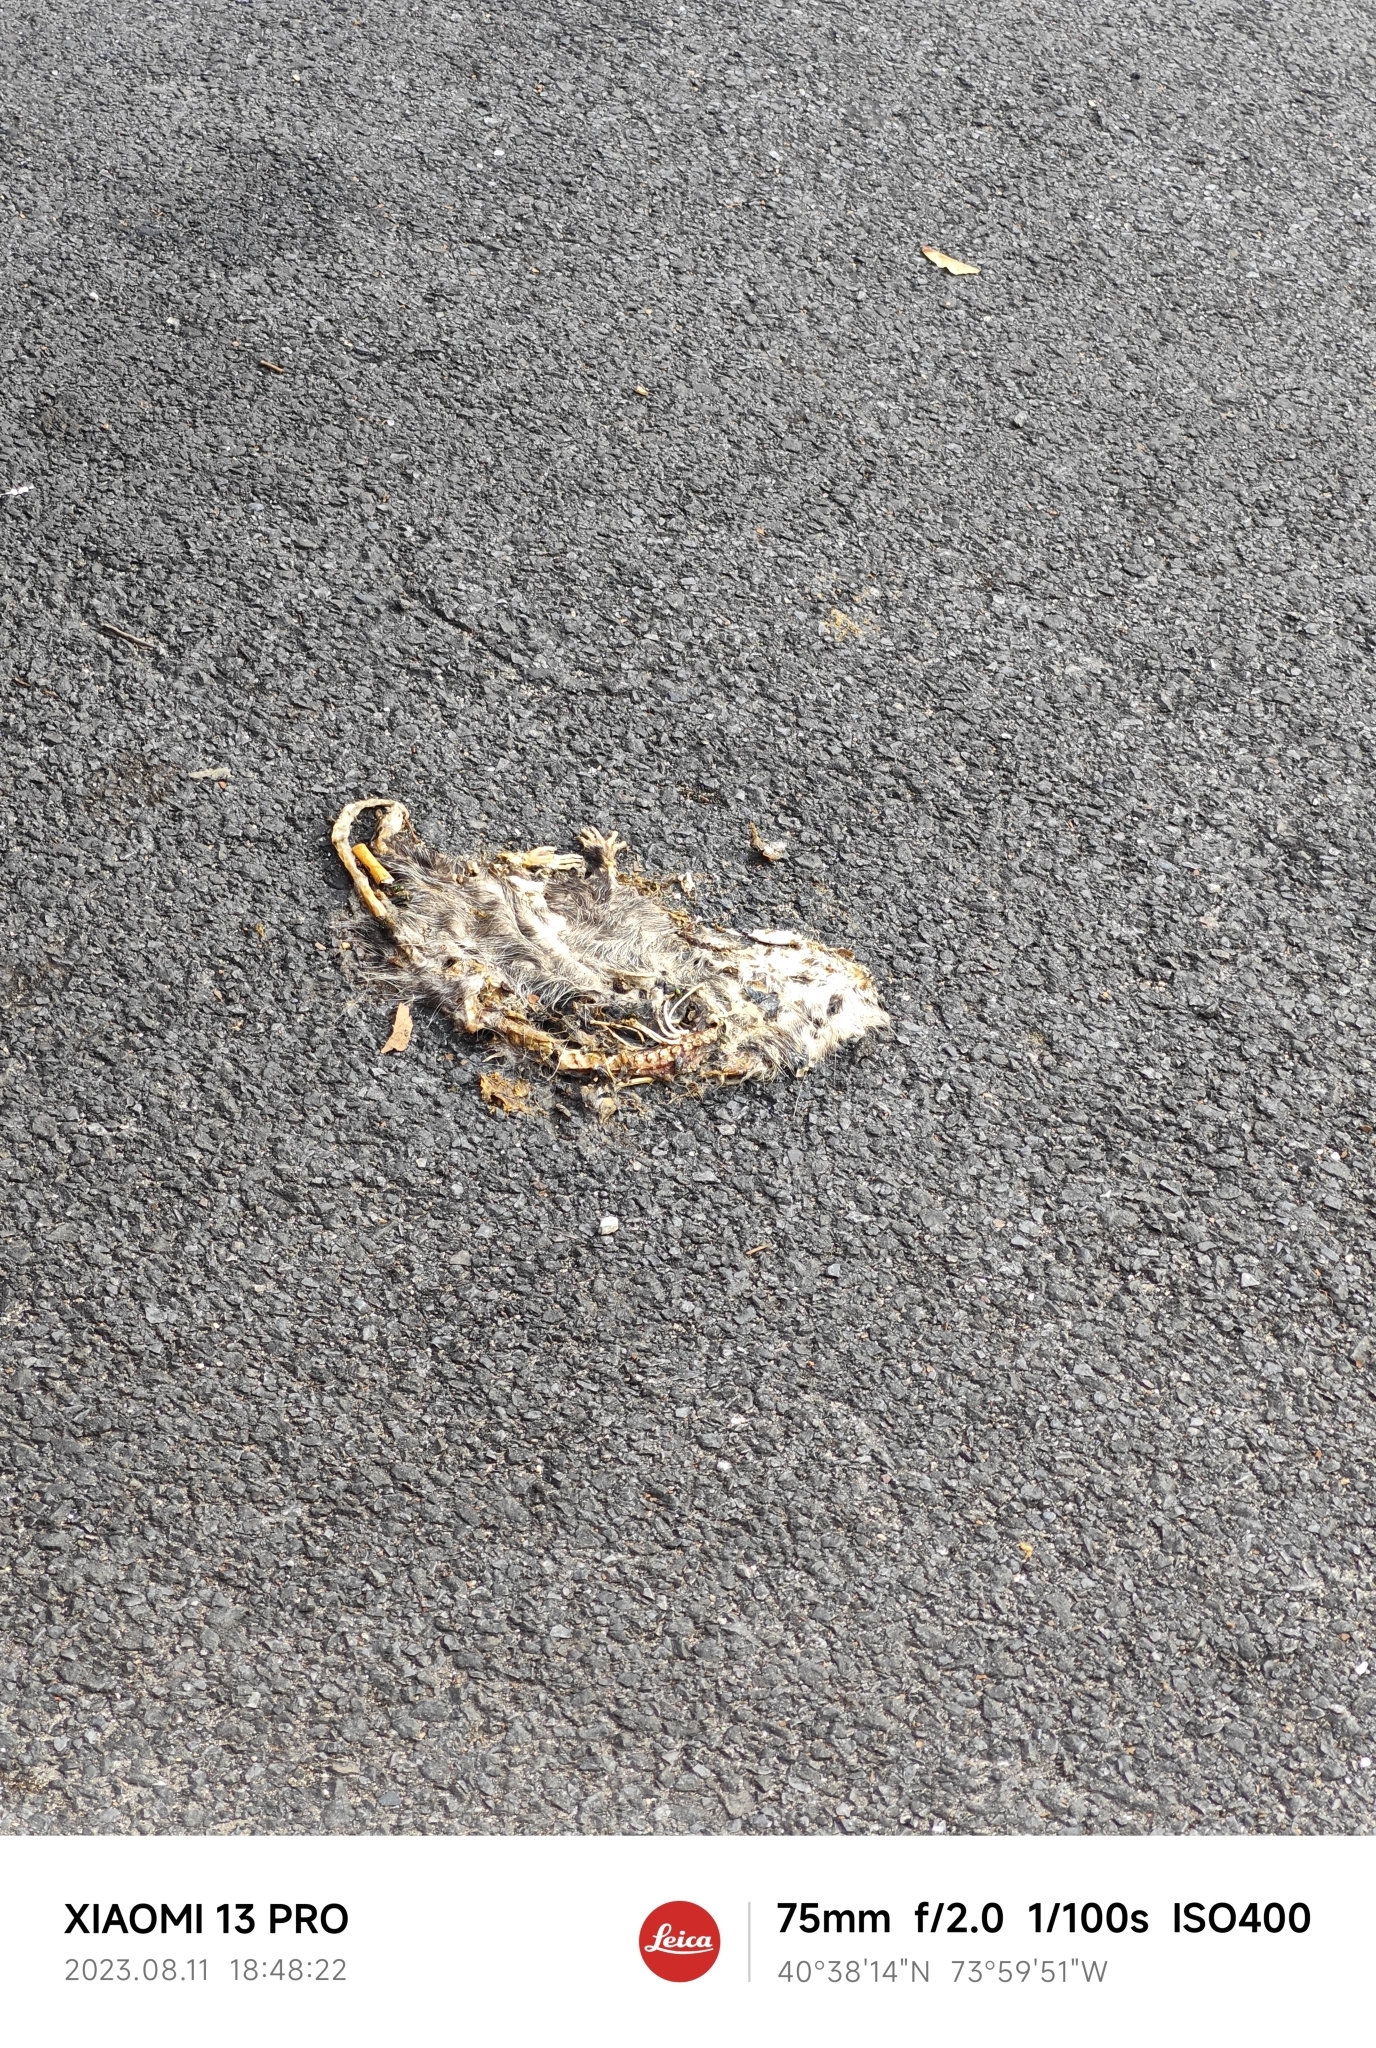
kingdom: Animalia
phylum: Chordata
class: Mammalia
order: Didelphimorphia
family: Didelphidae
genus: Didelphis
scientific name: Didelphis virginiana
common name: Virginia opossum
